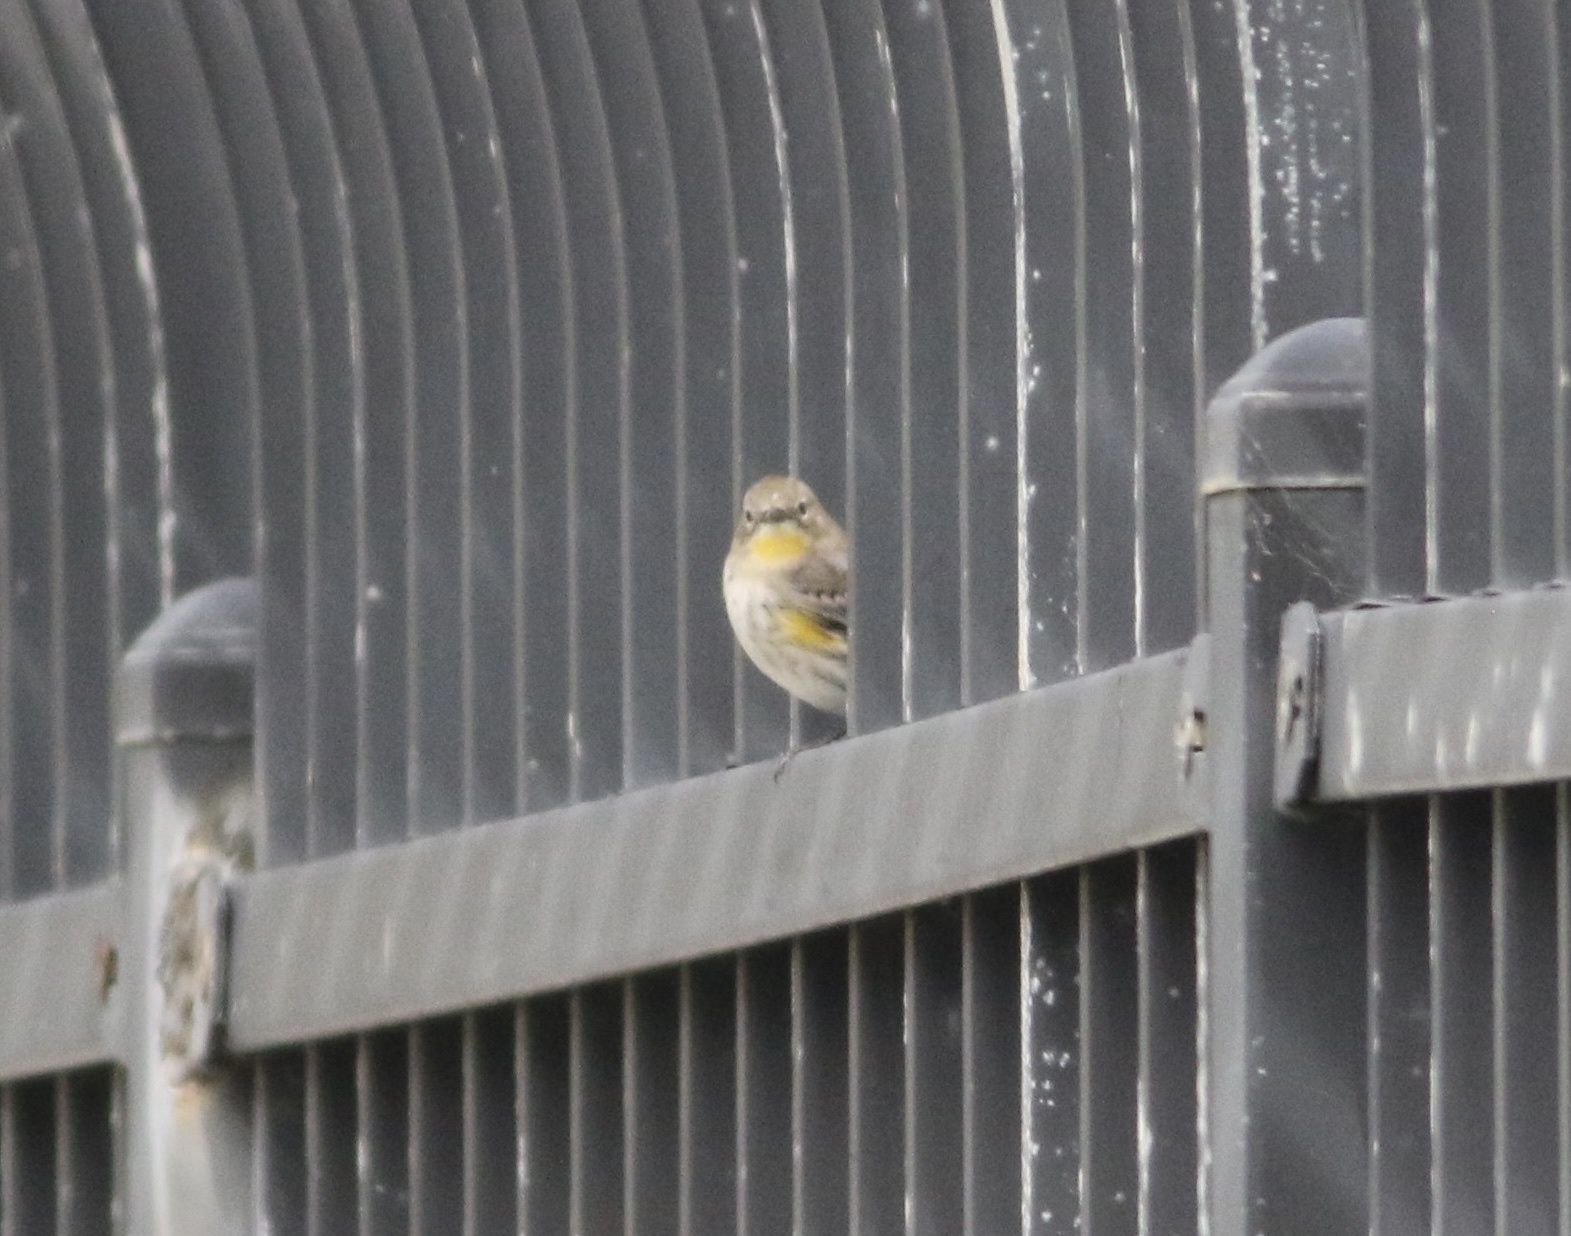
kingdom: Animalia
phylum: Chordata
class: Aves
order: Passeriformes
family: Parulidae
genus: Setophaga
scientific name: Setophaga coronata
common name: Myrtle warbler
